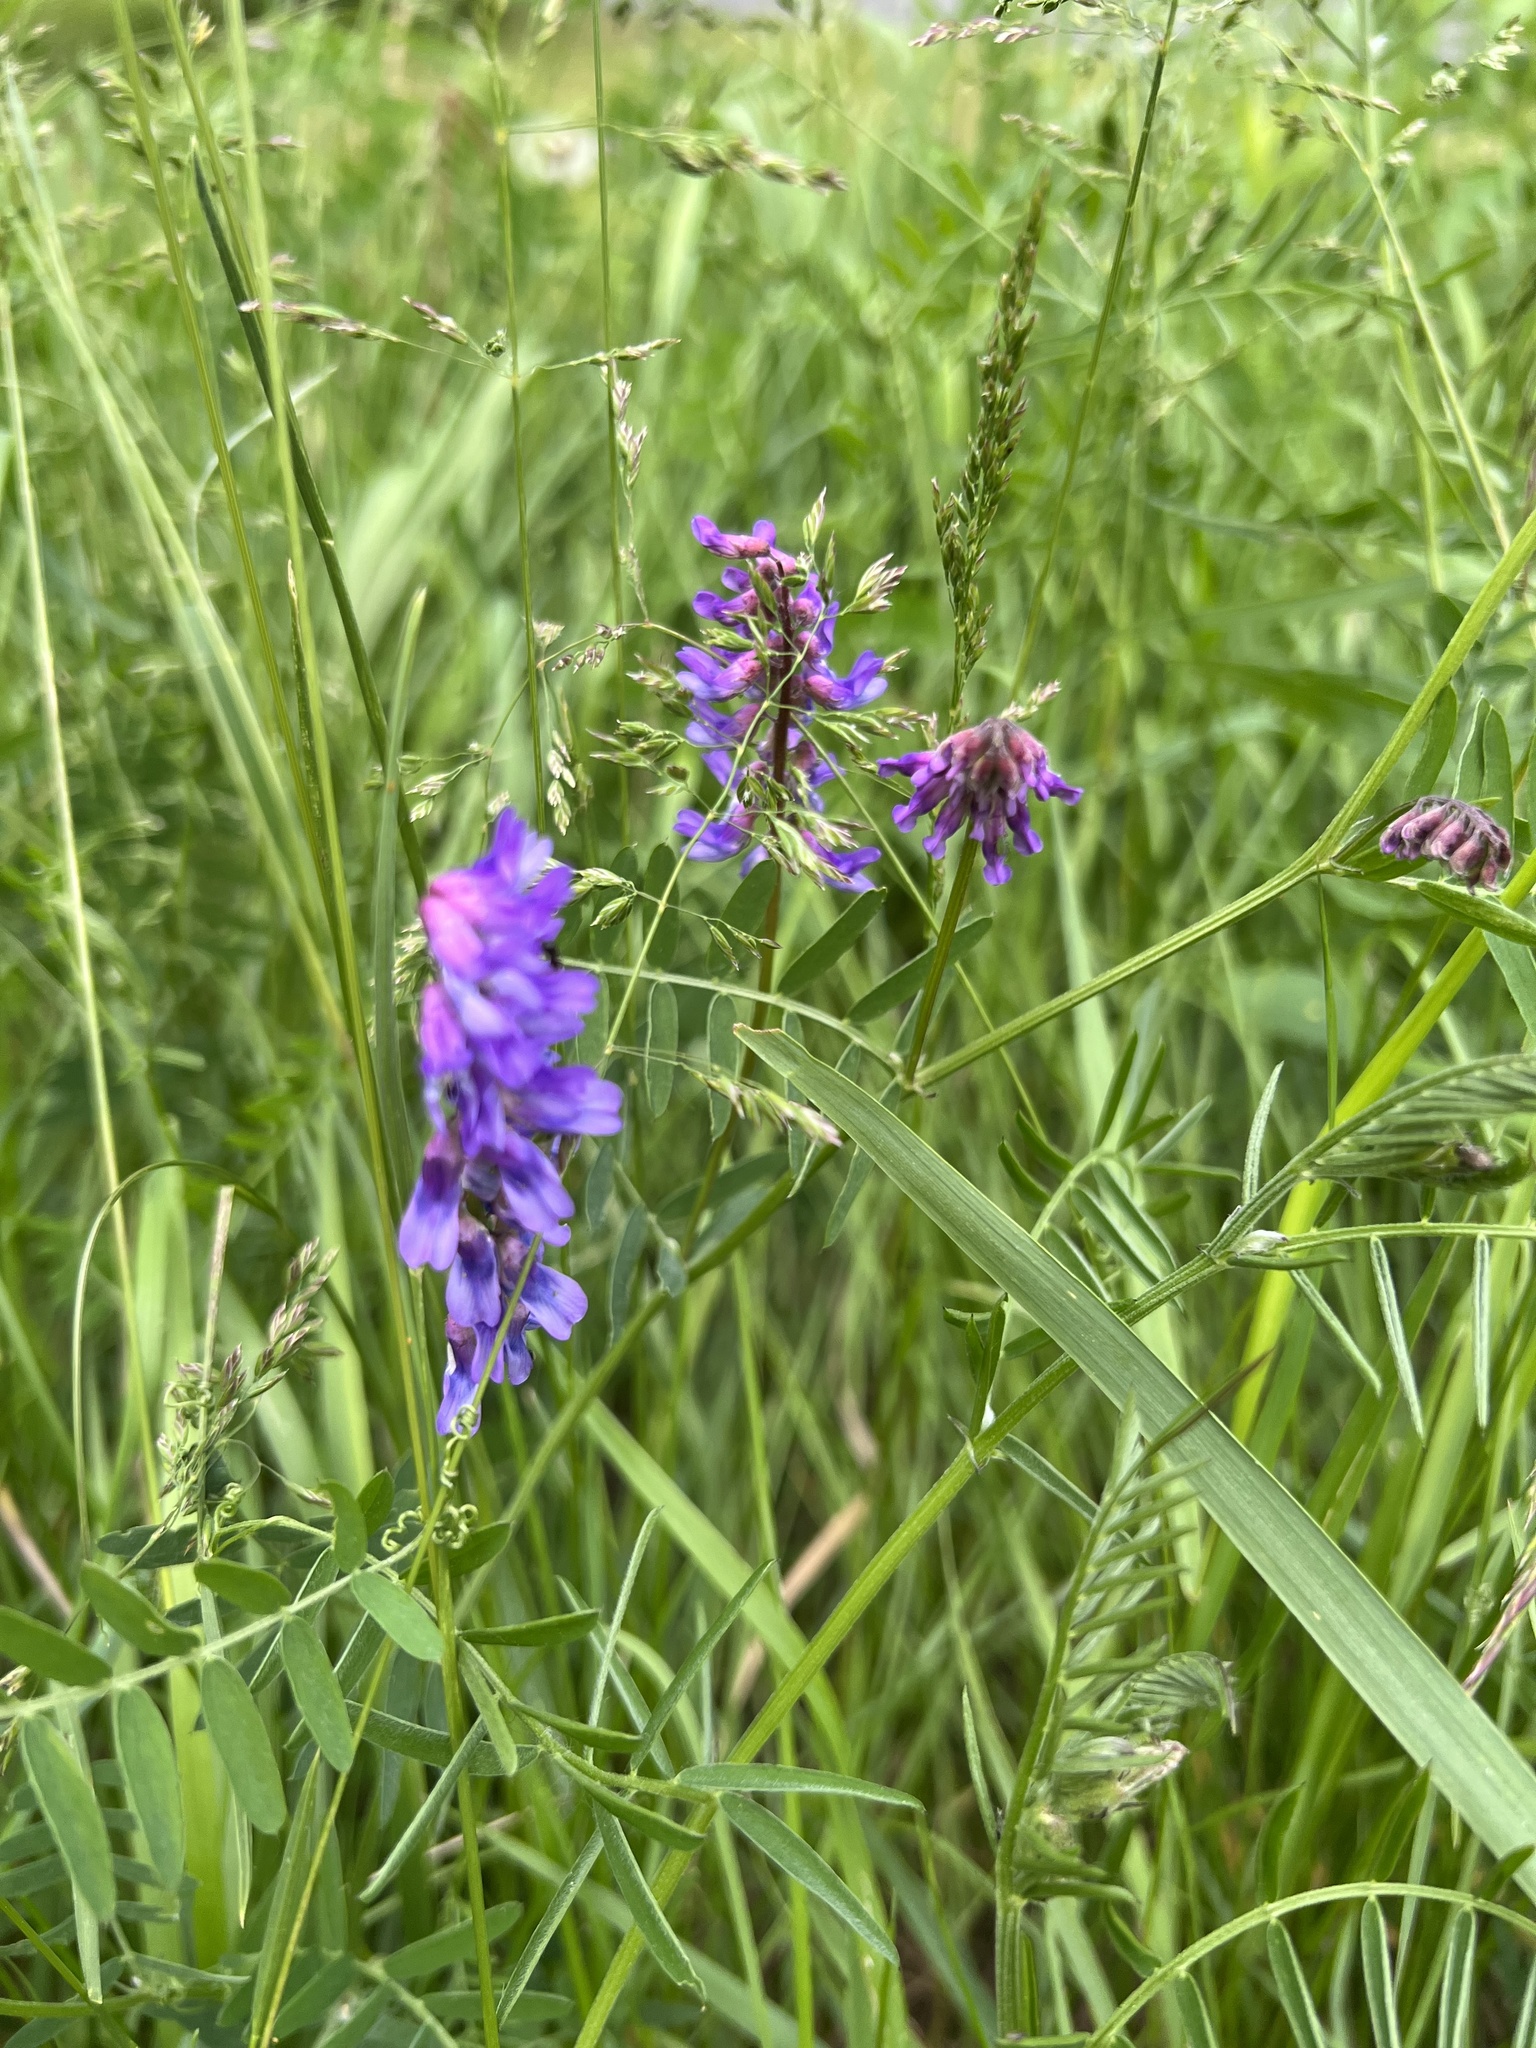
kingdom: Plantae
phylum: Tracheophyta
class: Magnoliopsida
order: Fabales
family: Fabaceae
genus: Vicia
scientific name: Vicia cracca
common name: Bird vetch
